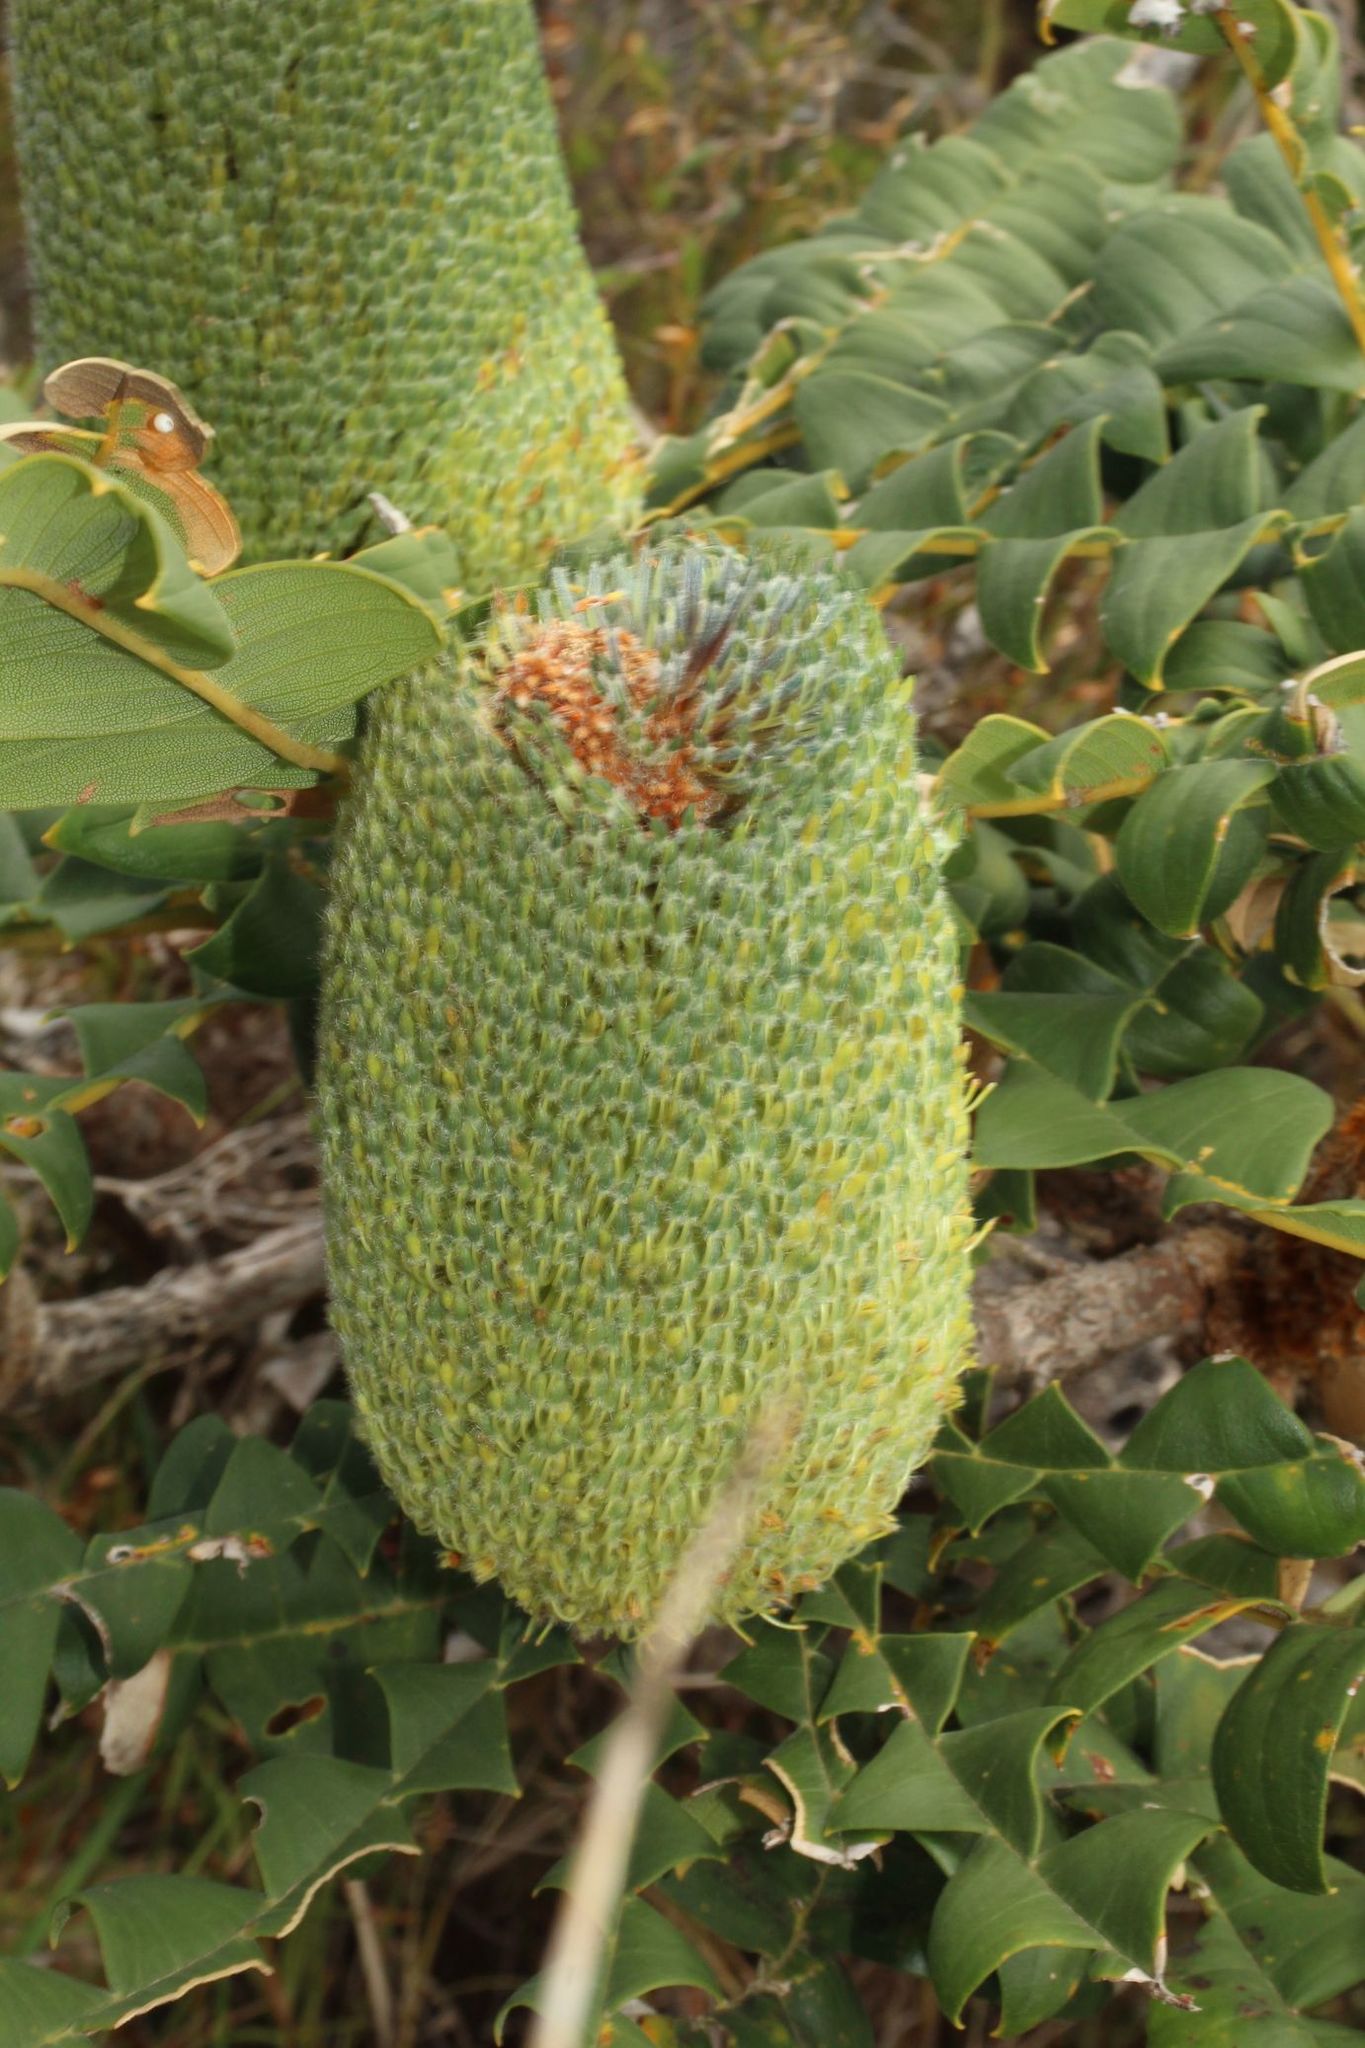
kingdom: Plantae
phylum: Tracheophyta
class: Magnoliopsida
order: Proteales
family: Proteaceae
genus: Banksia
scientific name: Banksia grandis
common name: Giant banksia
